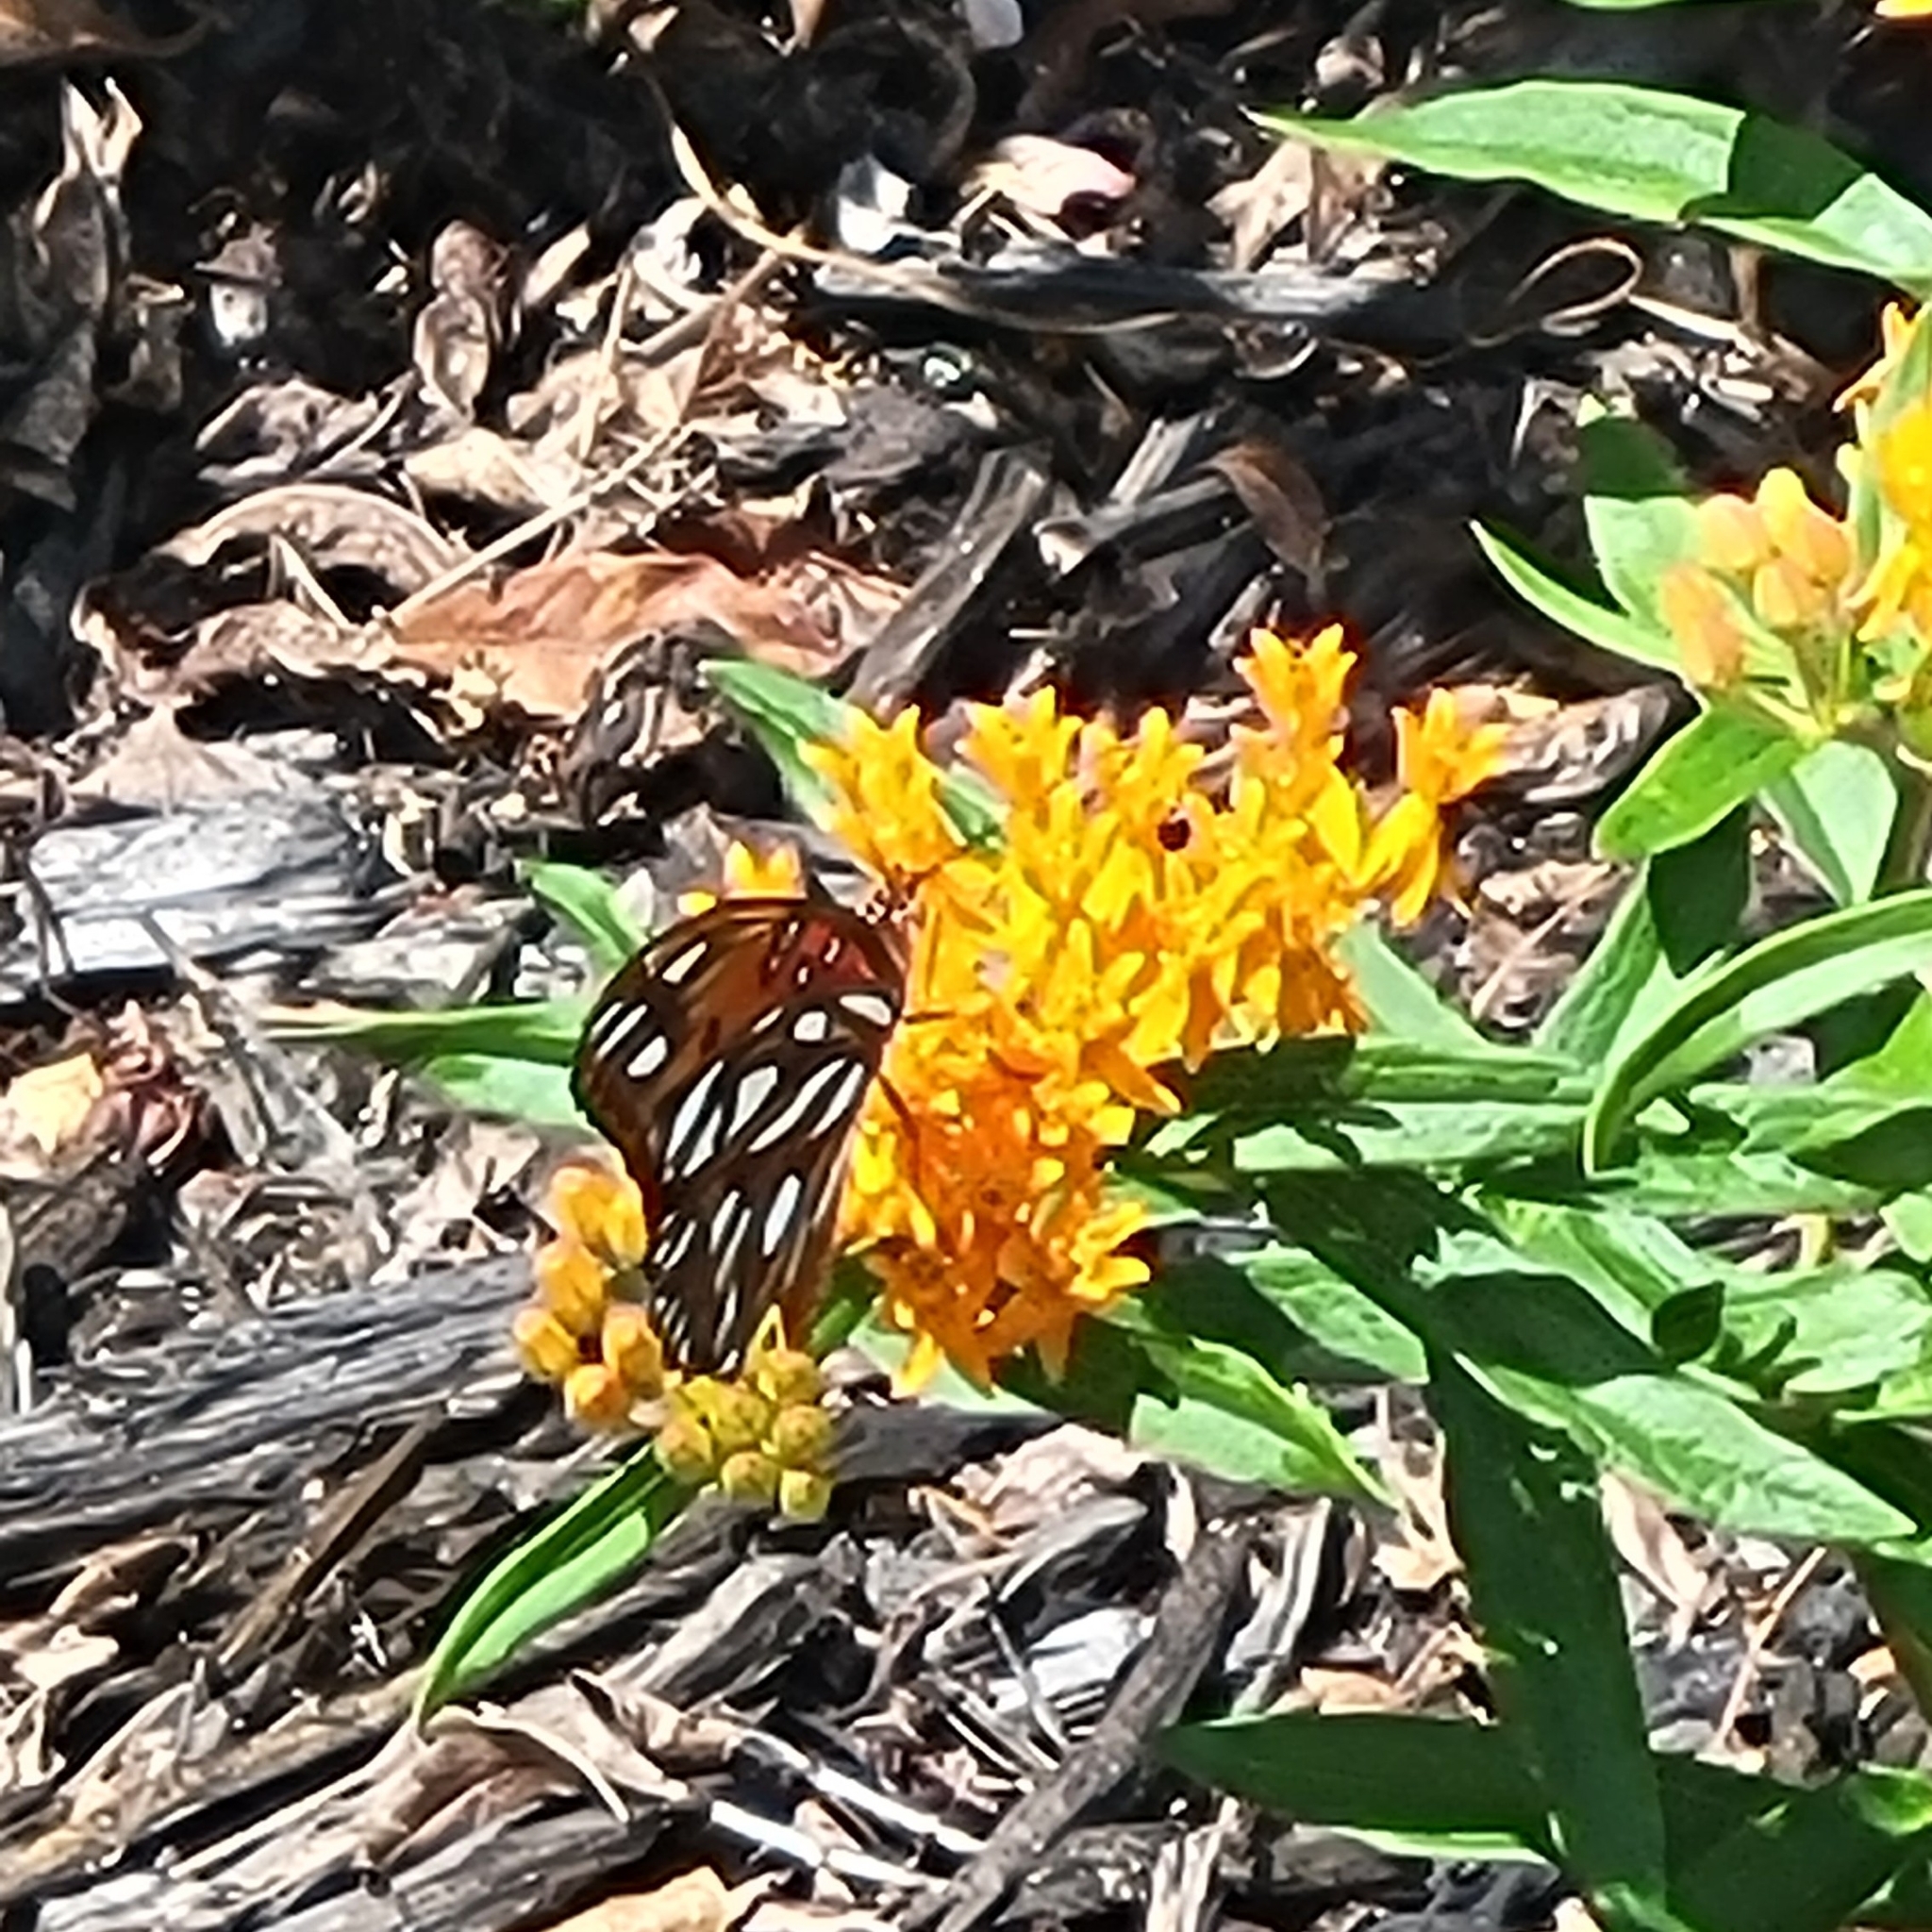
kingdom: Animalia
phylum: Arthropoda
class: Insecta
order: Lepidoptera
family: Nymphalidae
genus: Dione
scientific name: Dione vanillae
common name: Gulf fritillary
